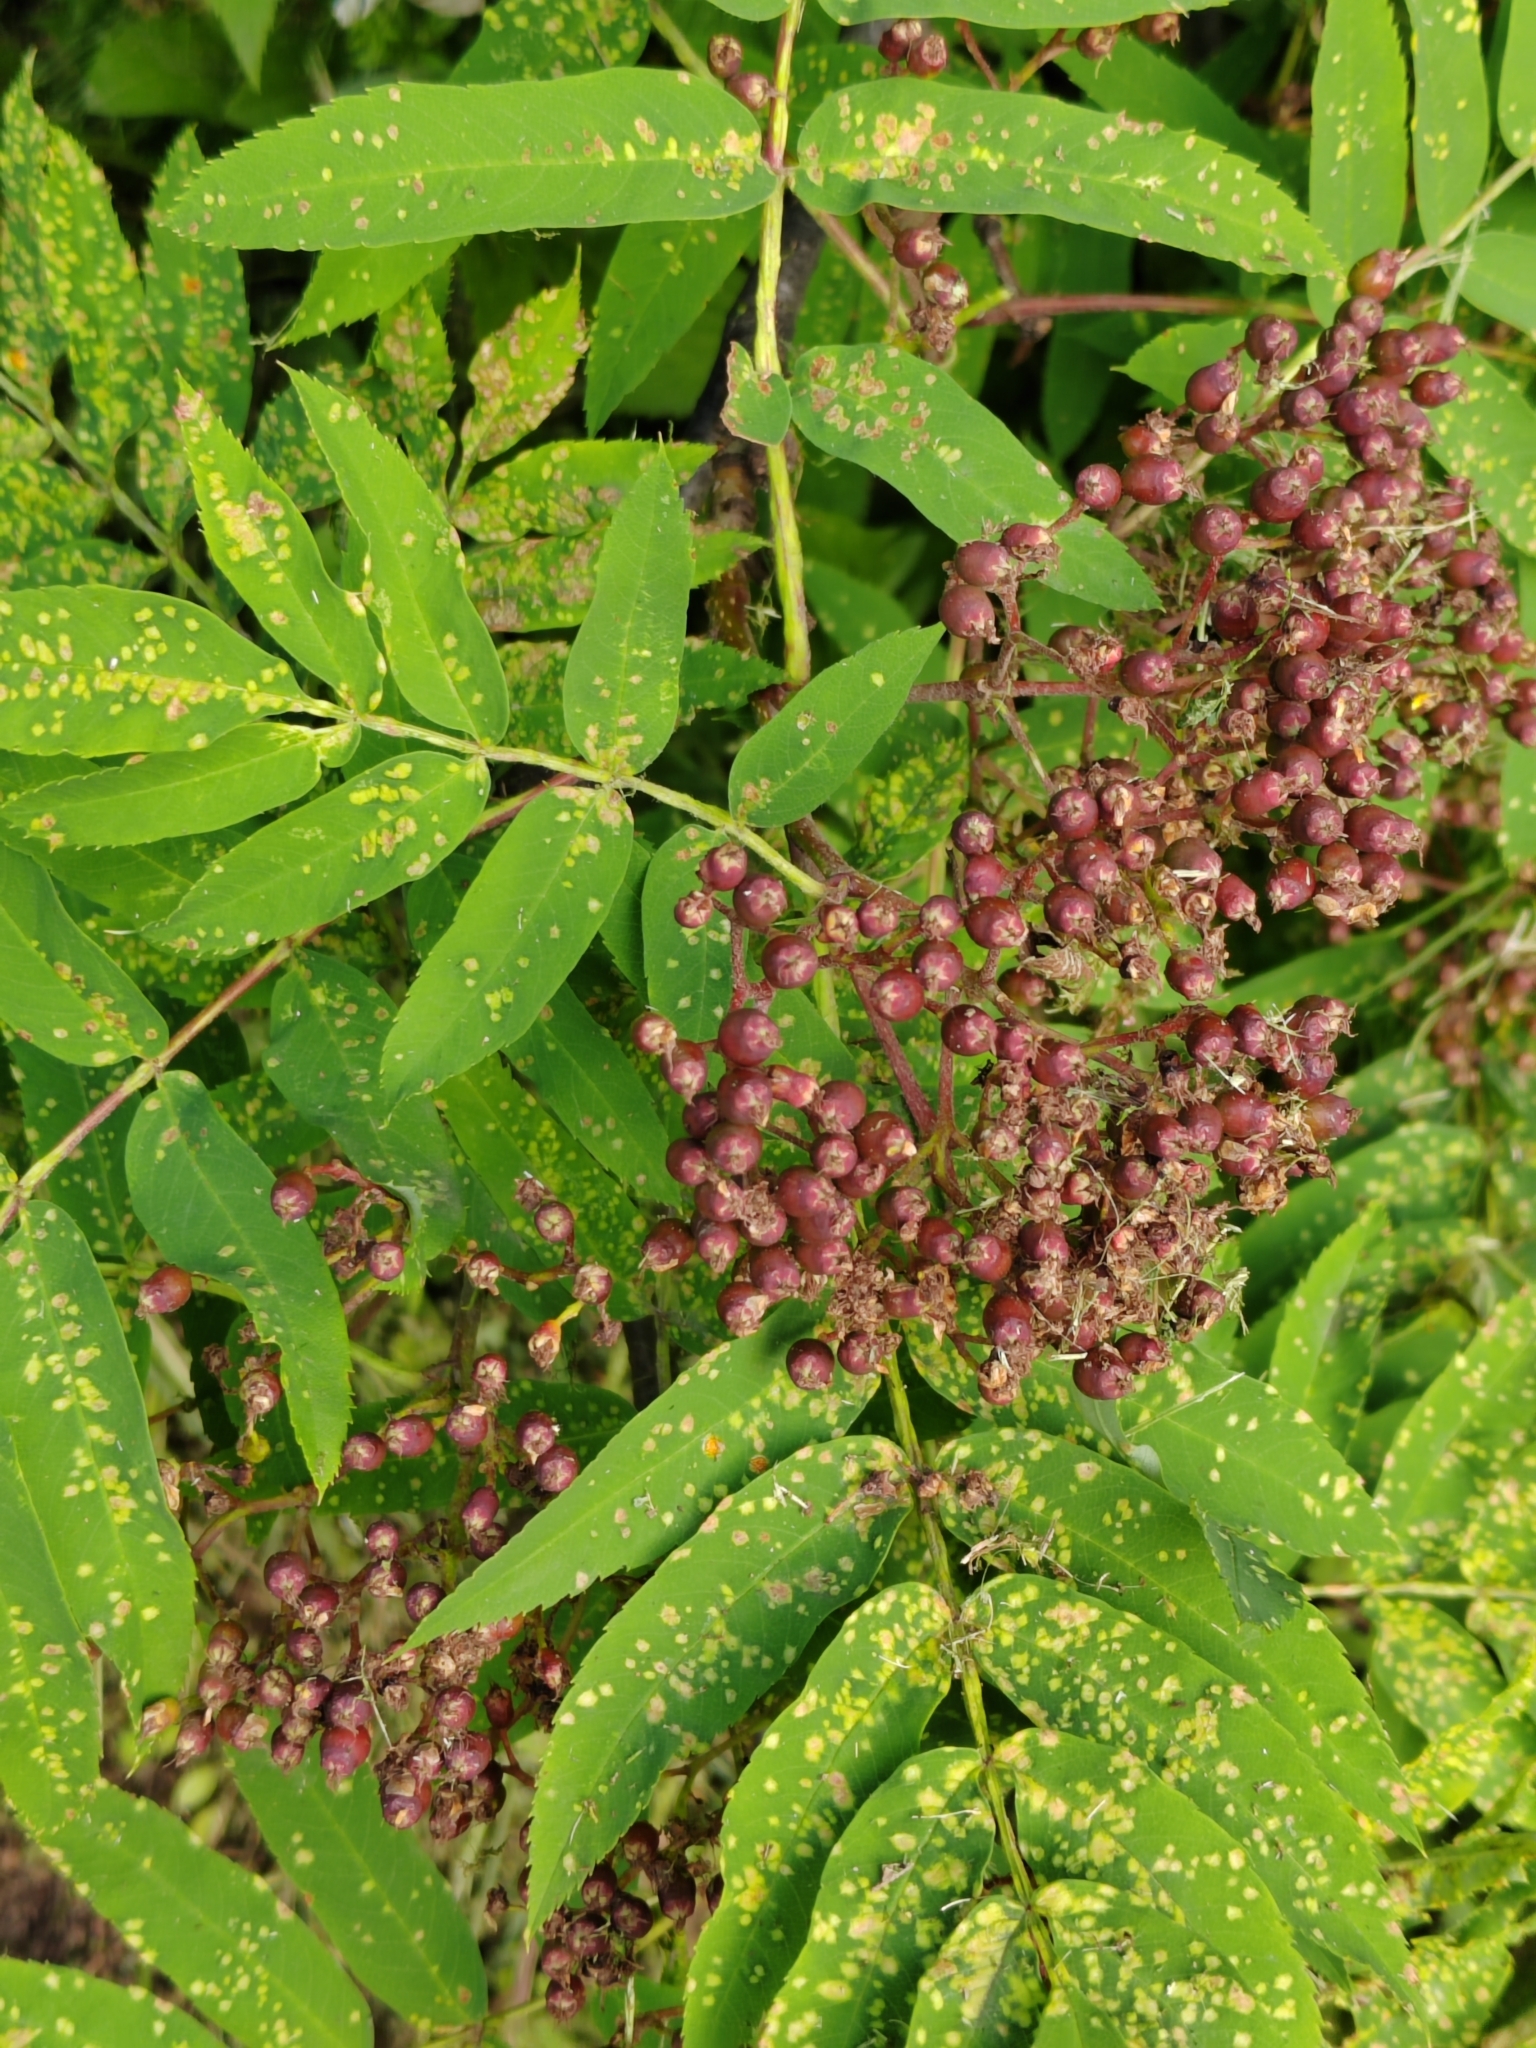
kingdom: Plantae
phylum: Tracheophyta
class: Magnoliopsida
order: Rosales
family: Rosaceae
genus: Sorbus
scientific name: Sorbus aucuparia
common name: Rowan
